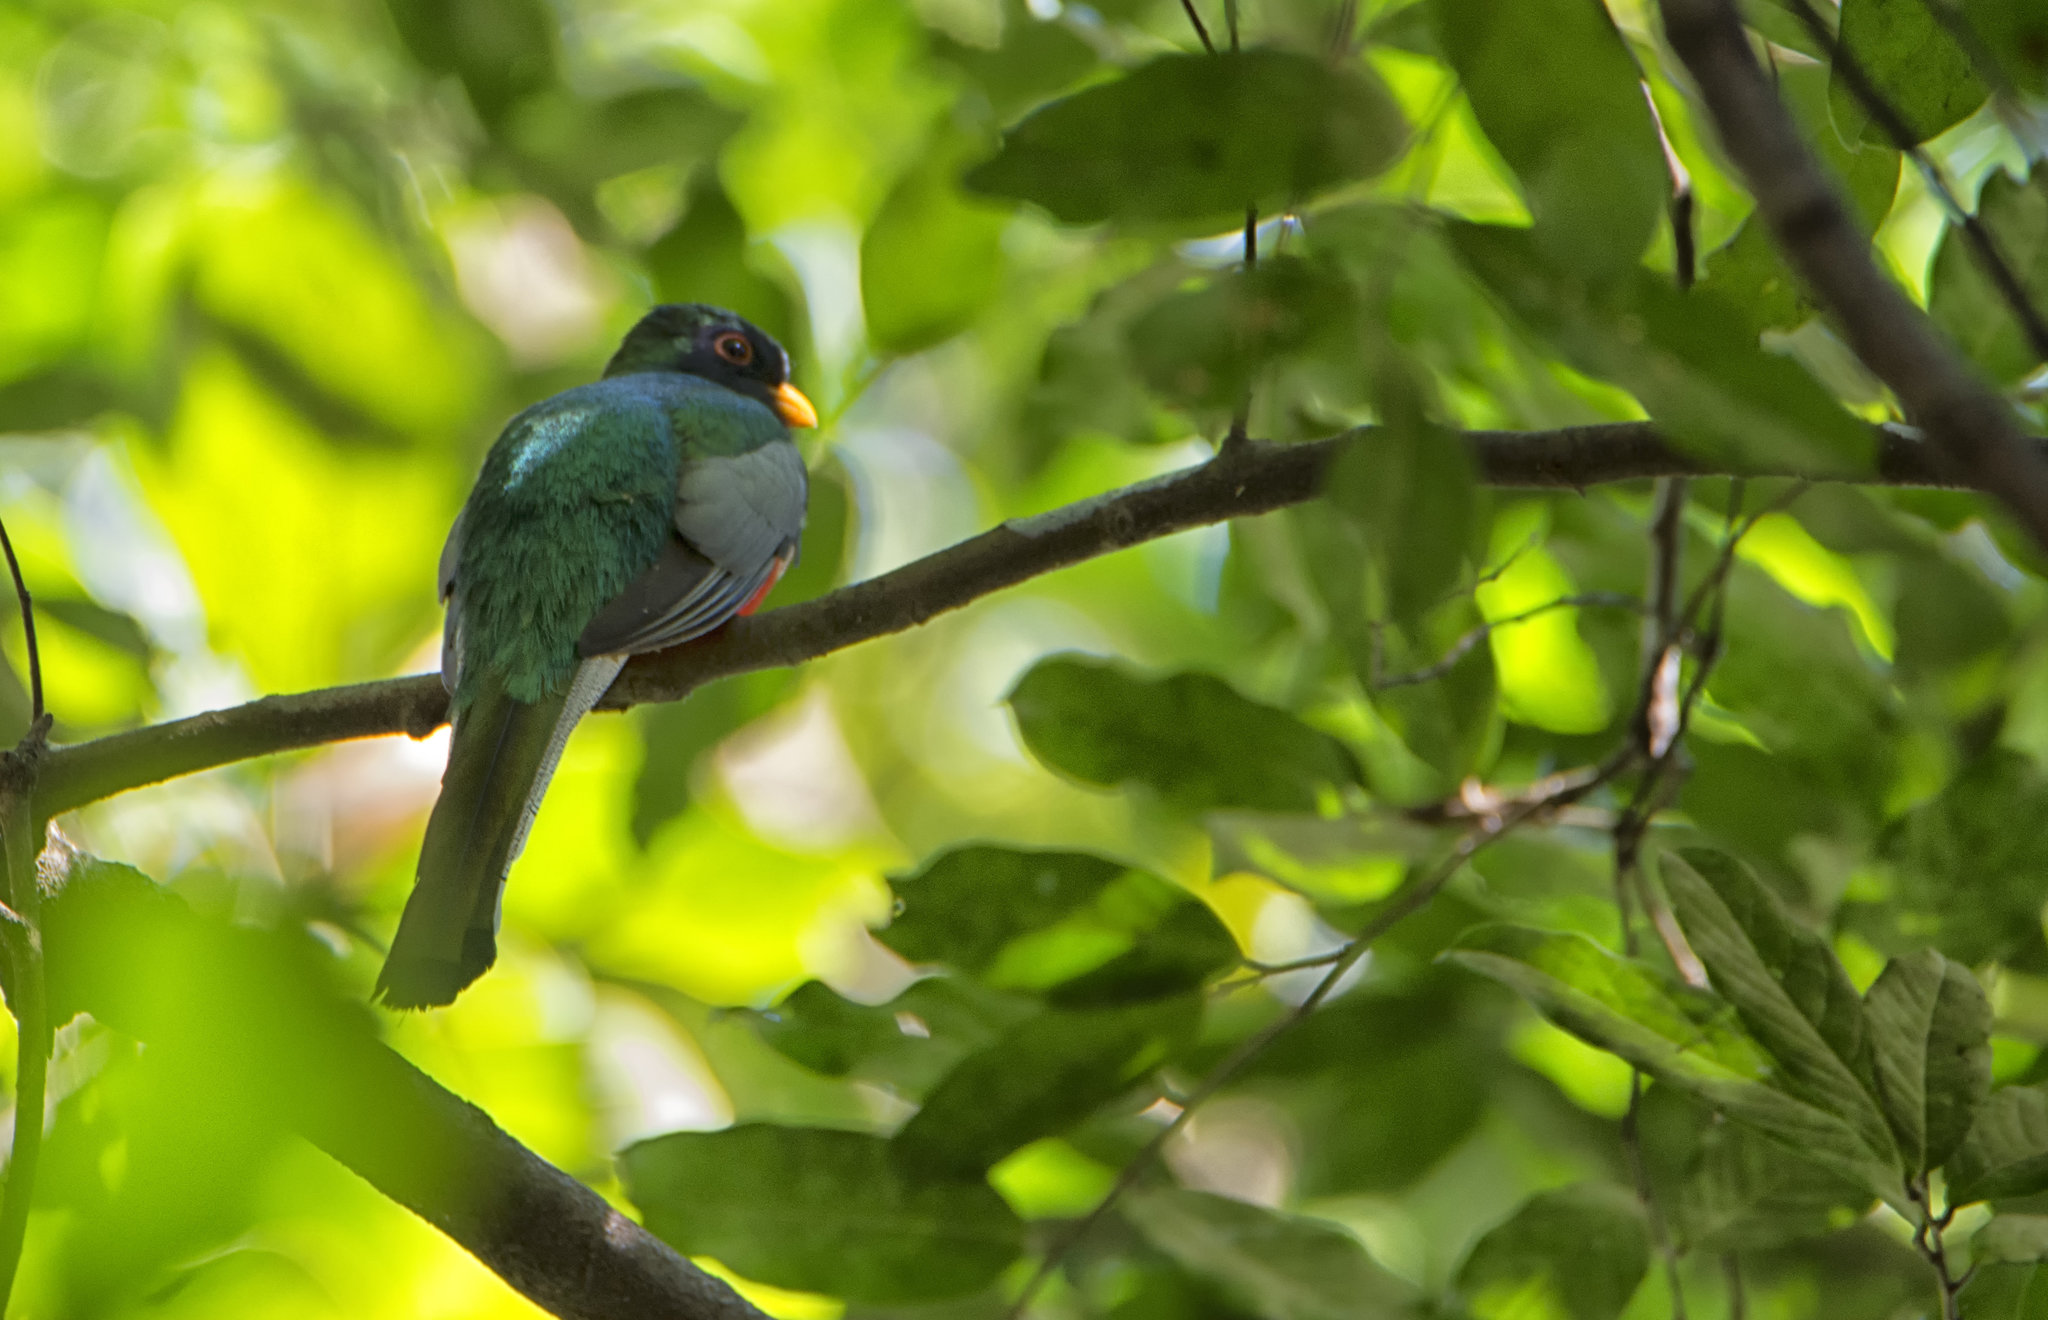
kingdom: Animalia
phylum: Chordata
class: Aves
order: Trogoniformes
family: Trogonidae
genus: Trogon
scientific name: Trogon elegans
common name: Elegant trogon
